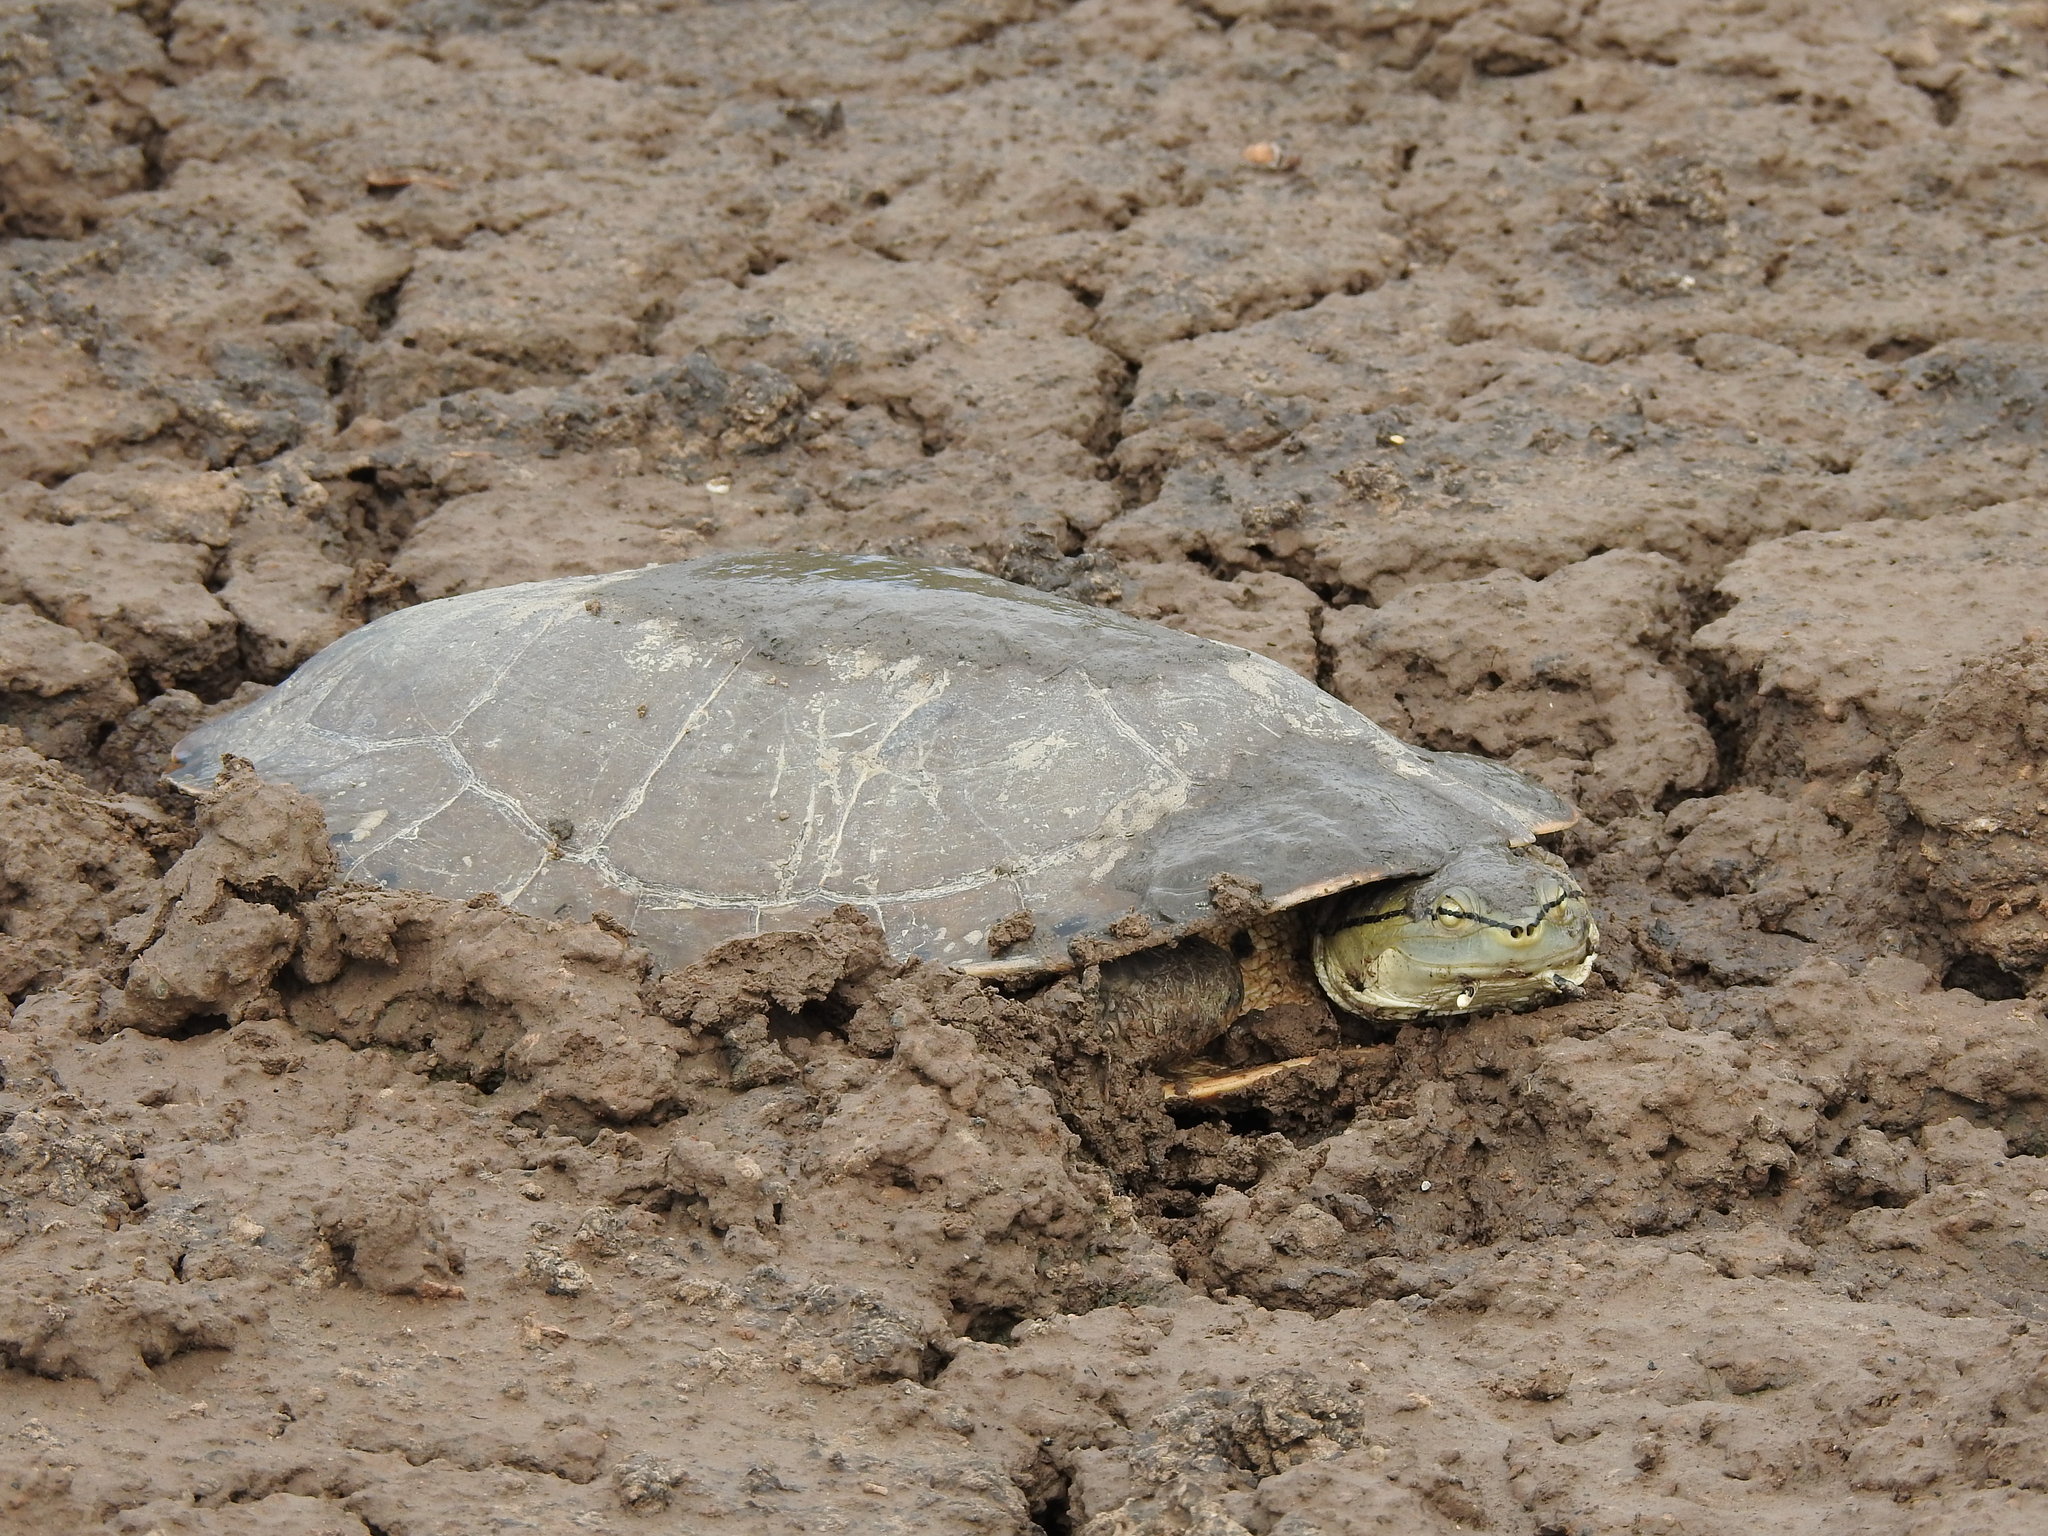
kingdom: Animalia
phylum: Chordata
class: Testudines
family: Chelidae
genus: Phrynops
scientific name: Phrynops hilarii
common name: Side-necked turtle of saint hillaire
